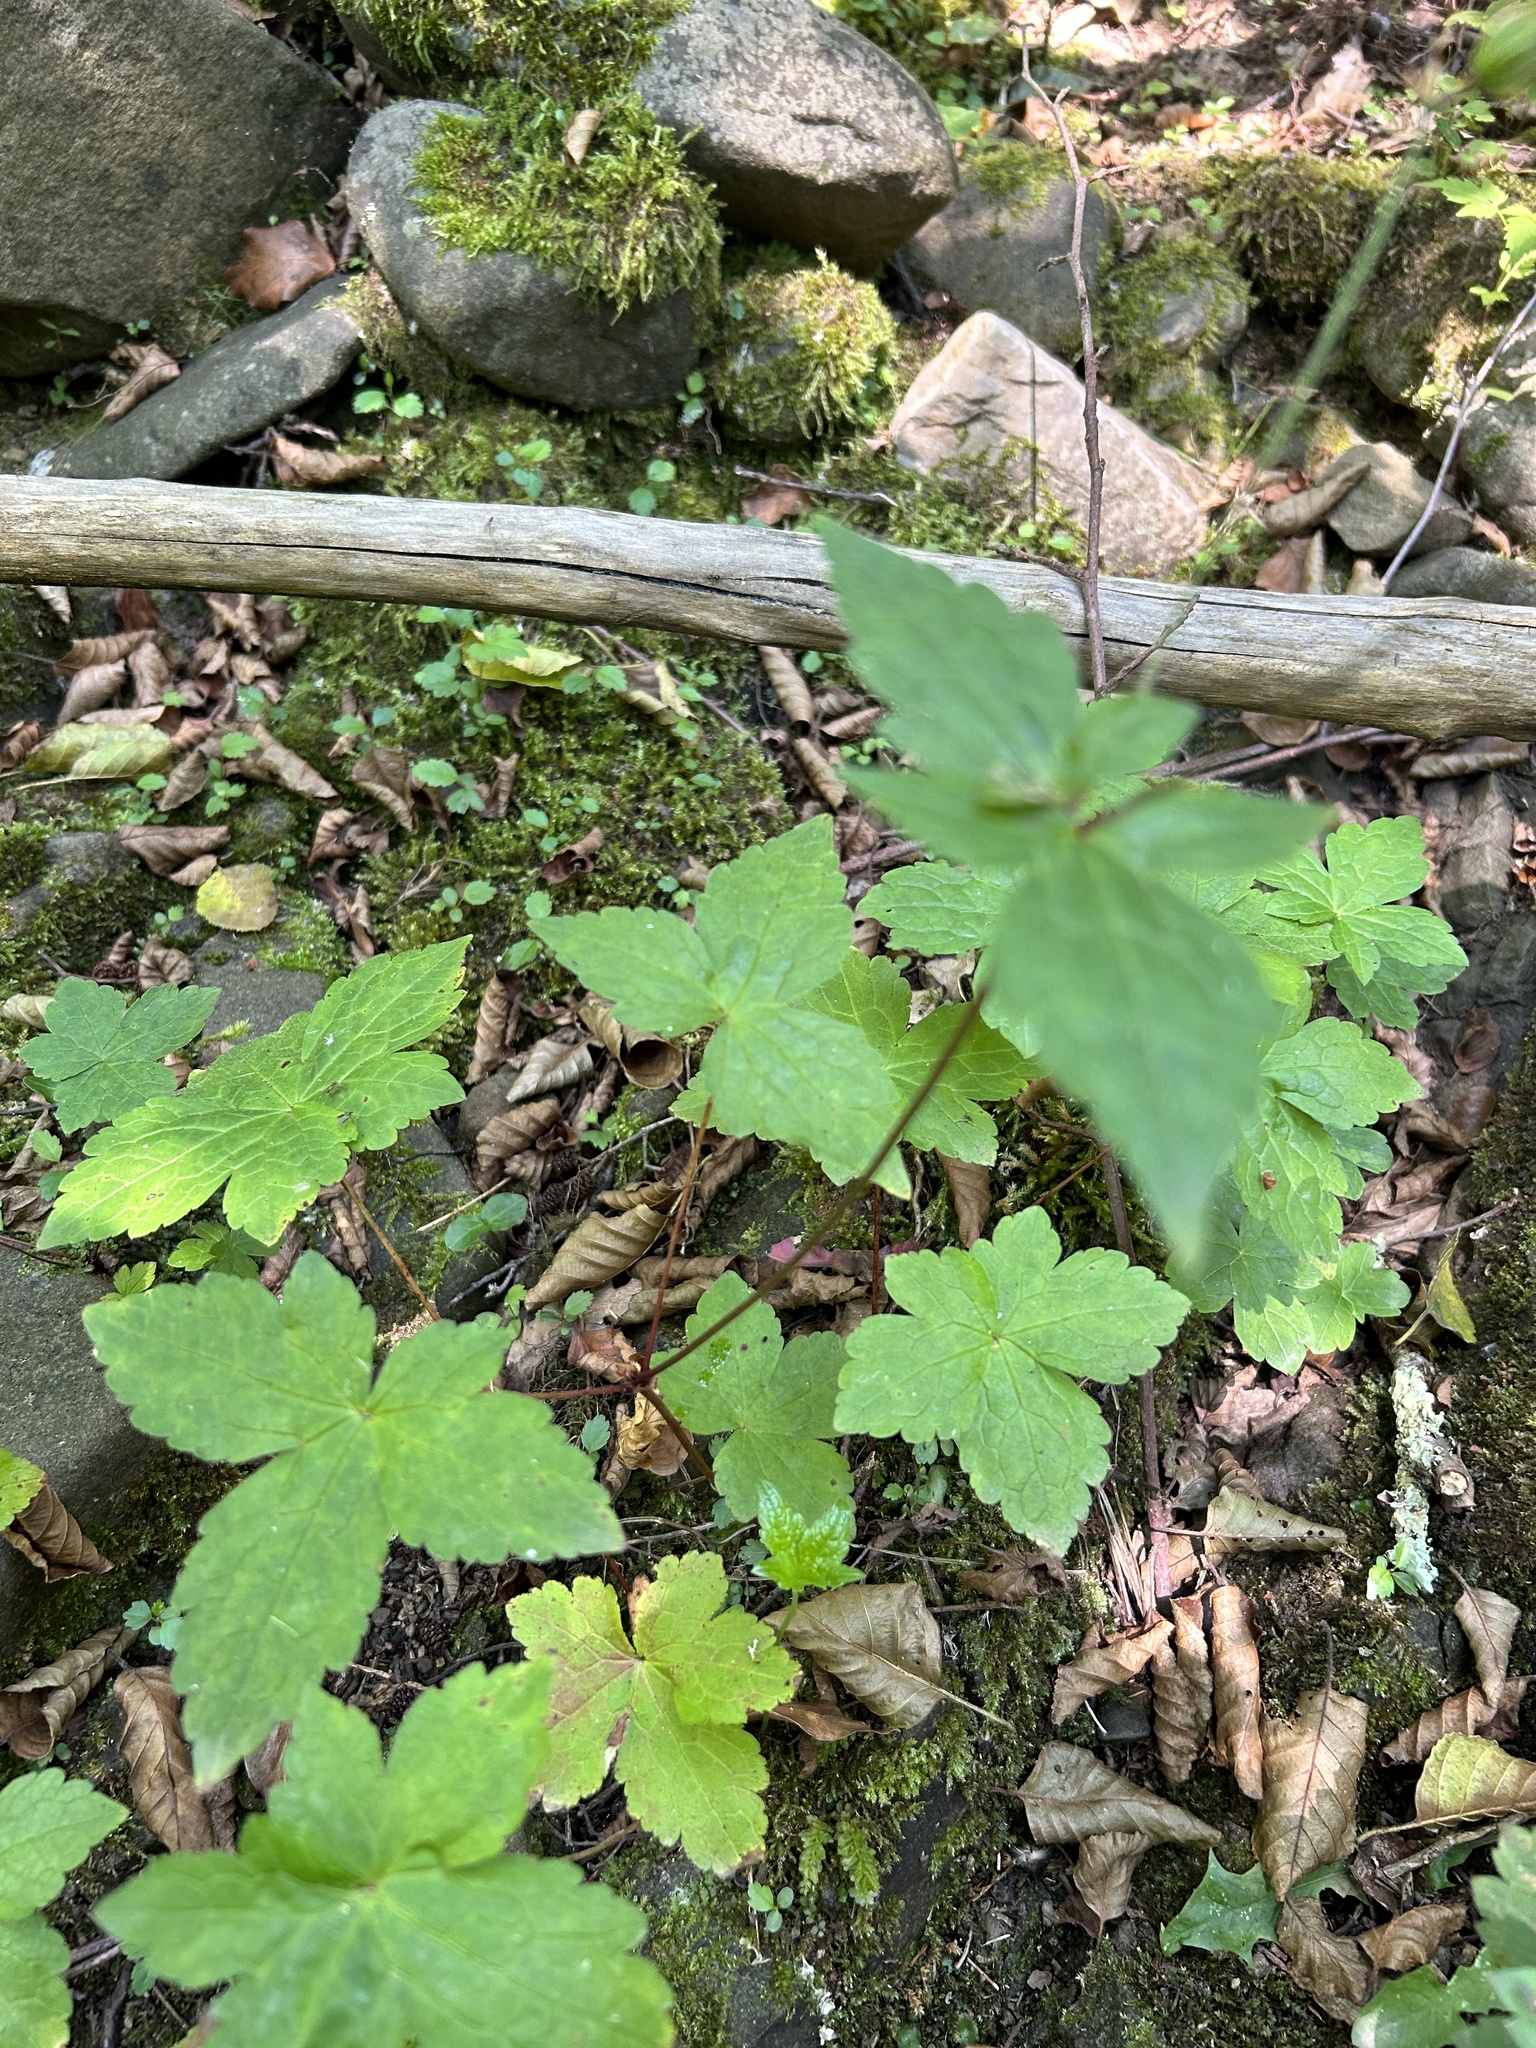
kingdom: Plantae
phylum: Tracheophyta
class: Magnoliopsida
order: Geraniales
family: Geraniaceae
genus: Geranium
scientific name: Geranium nodosum
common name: Knotted crane's-bill
